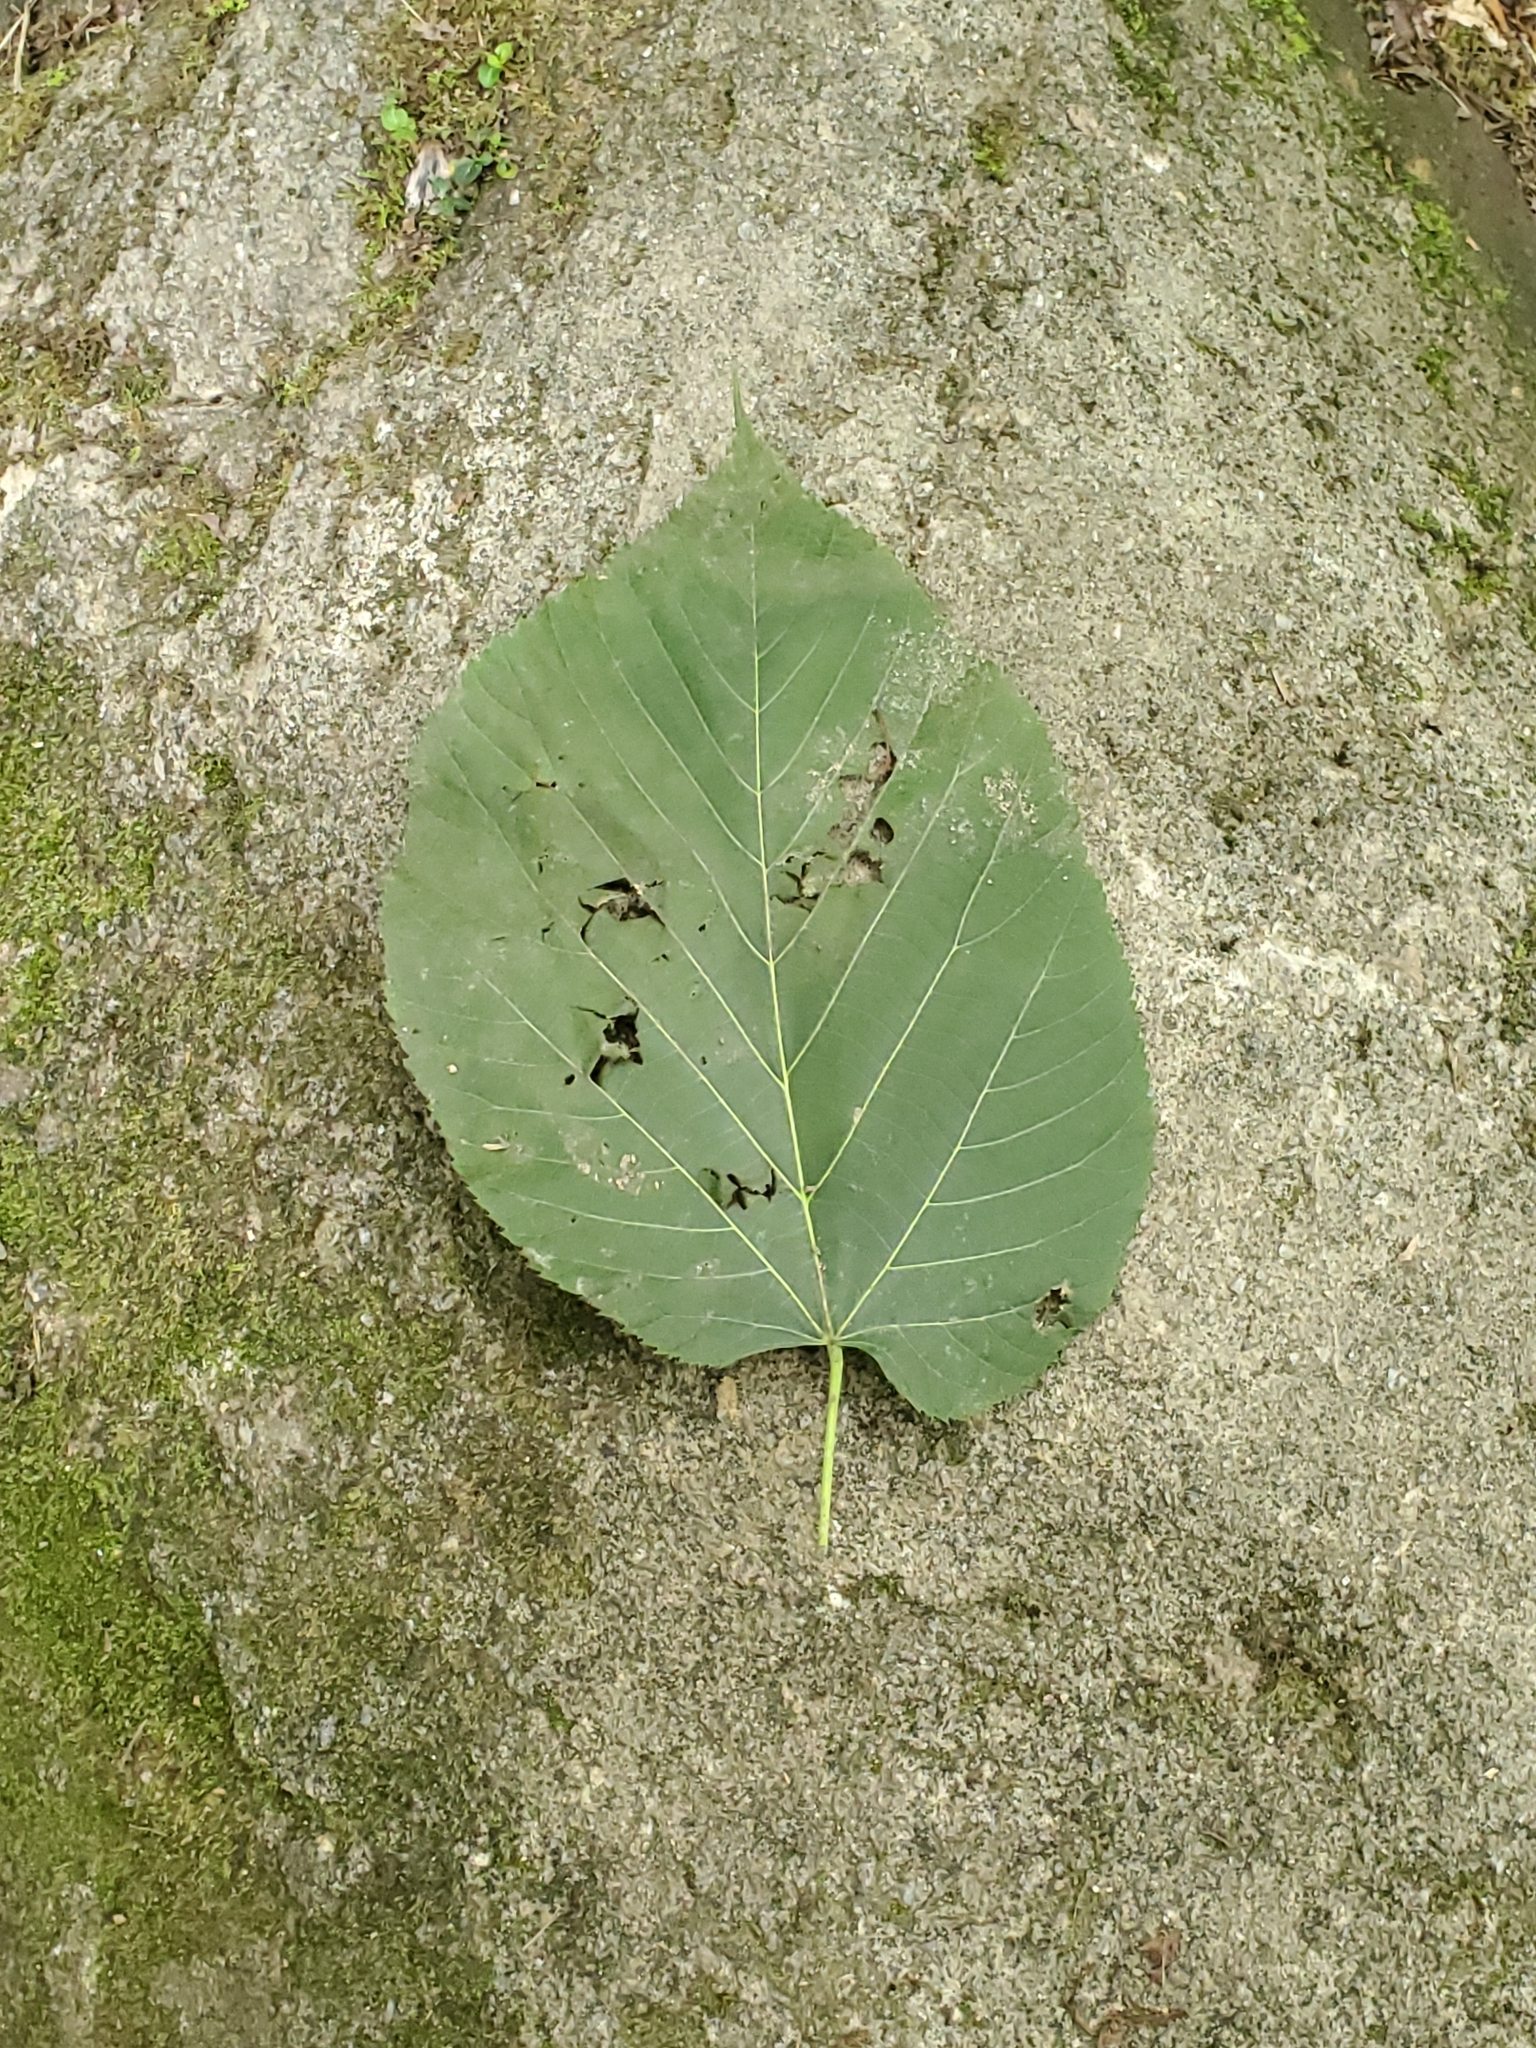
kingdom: Plantae
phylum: Tracheophyta
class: Magnoliopsida
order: Malvales
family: Malvaceae
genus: Tilia
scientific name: Tilia americana
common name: Basswood
